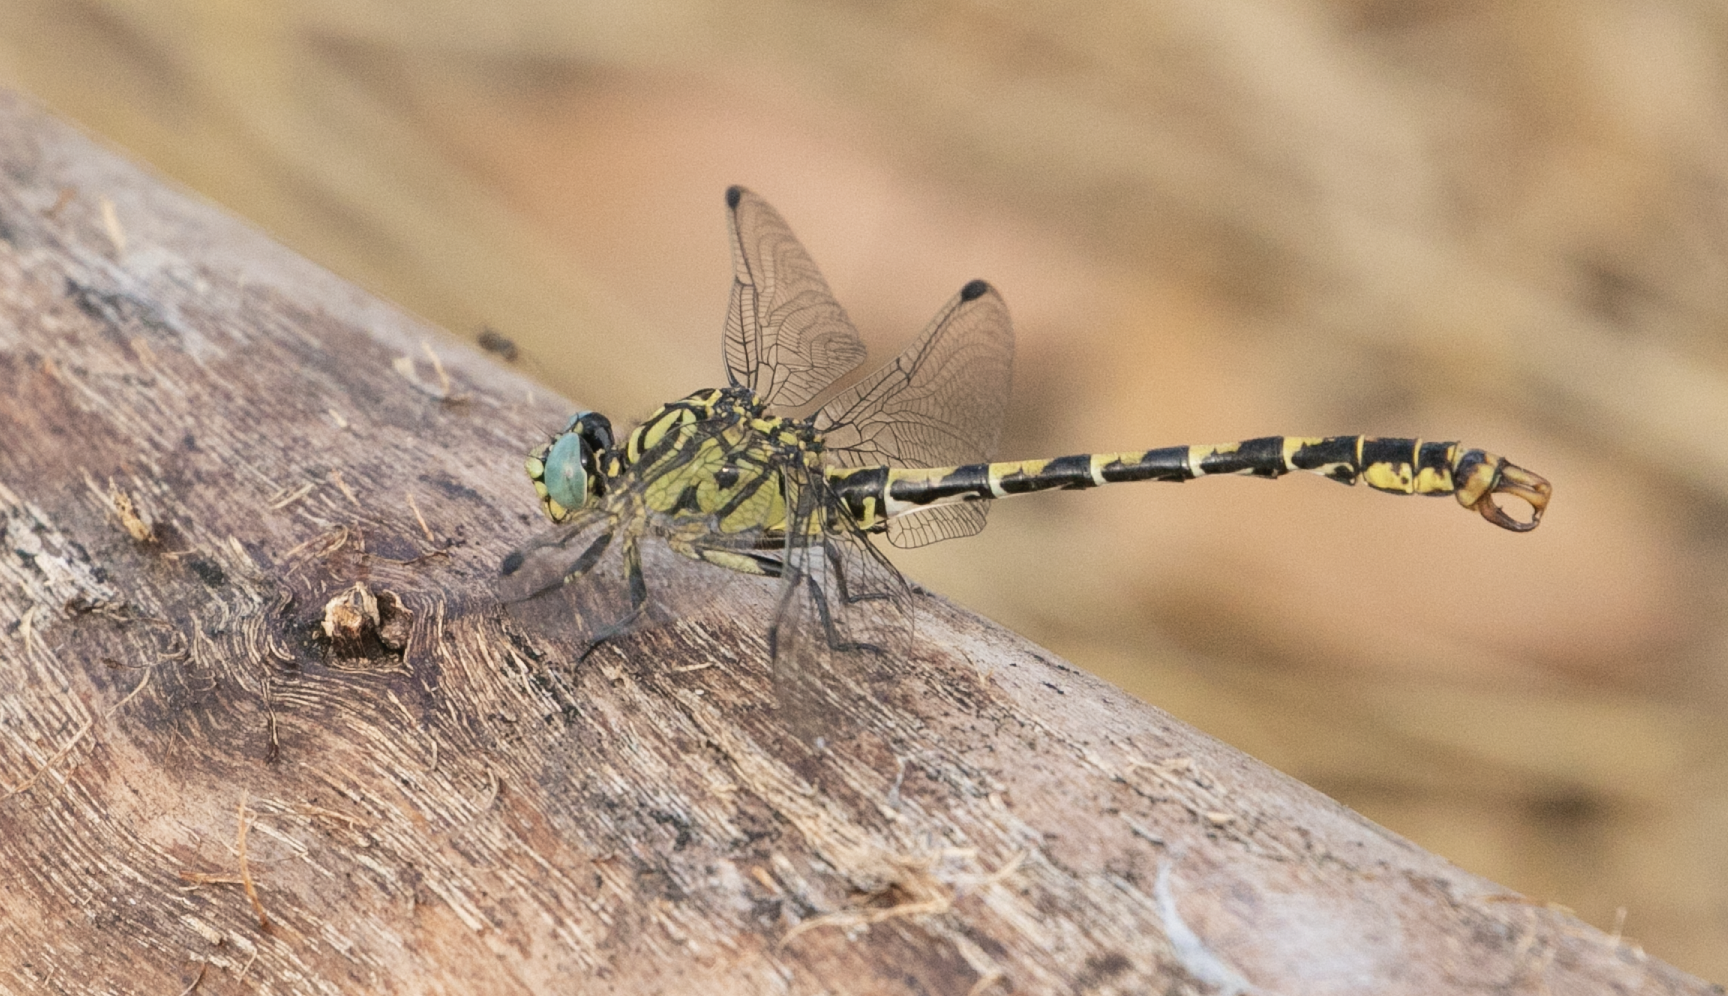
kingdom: Animalia
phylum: Arthropoda
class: Insecta
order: Odonata
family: Gomphidae
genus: Onychogomphus
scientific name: Onychogomphus forcipatus
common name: Small pincertail
